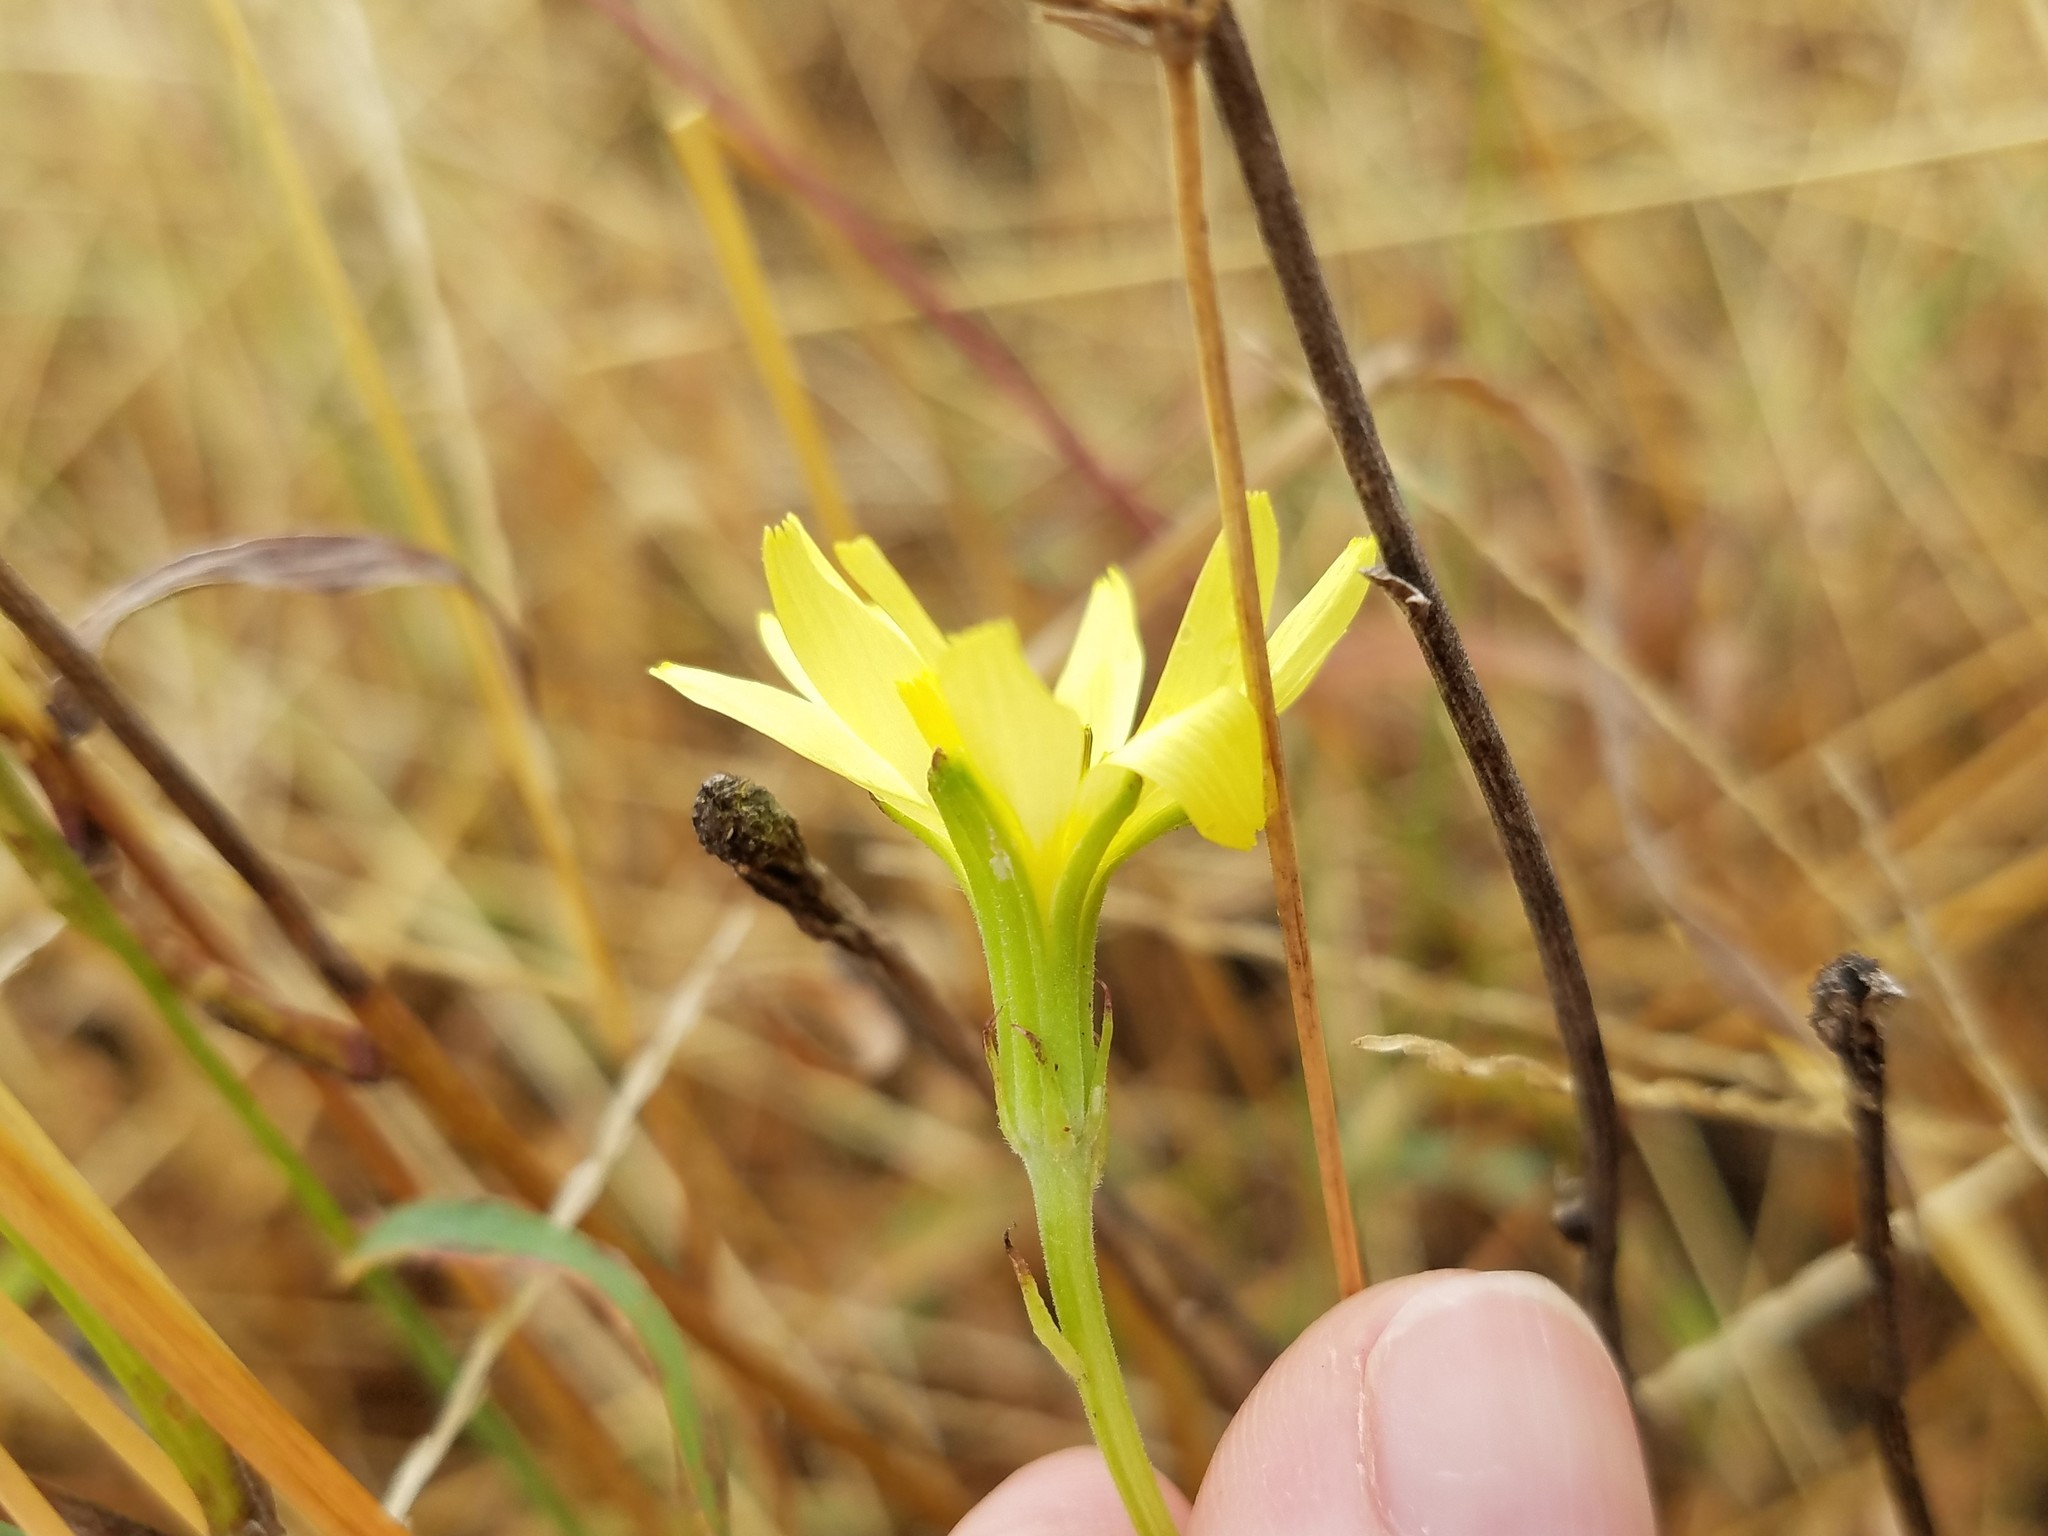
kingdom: Plantae
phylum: Tracheophyta
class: Magnoliopsida
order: Asterales
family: Asteraceae
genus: Pyrrhopappus
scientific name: Pyrrhopappus carolinianus
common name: Carolina desert-chicory
